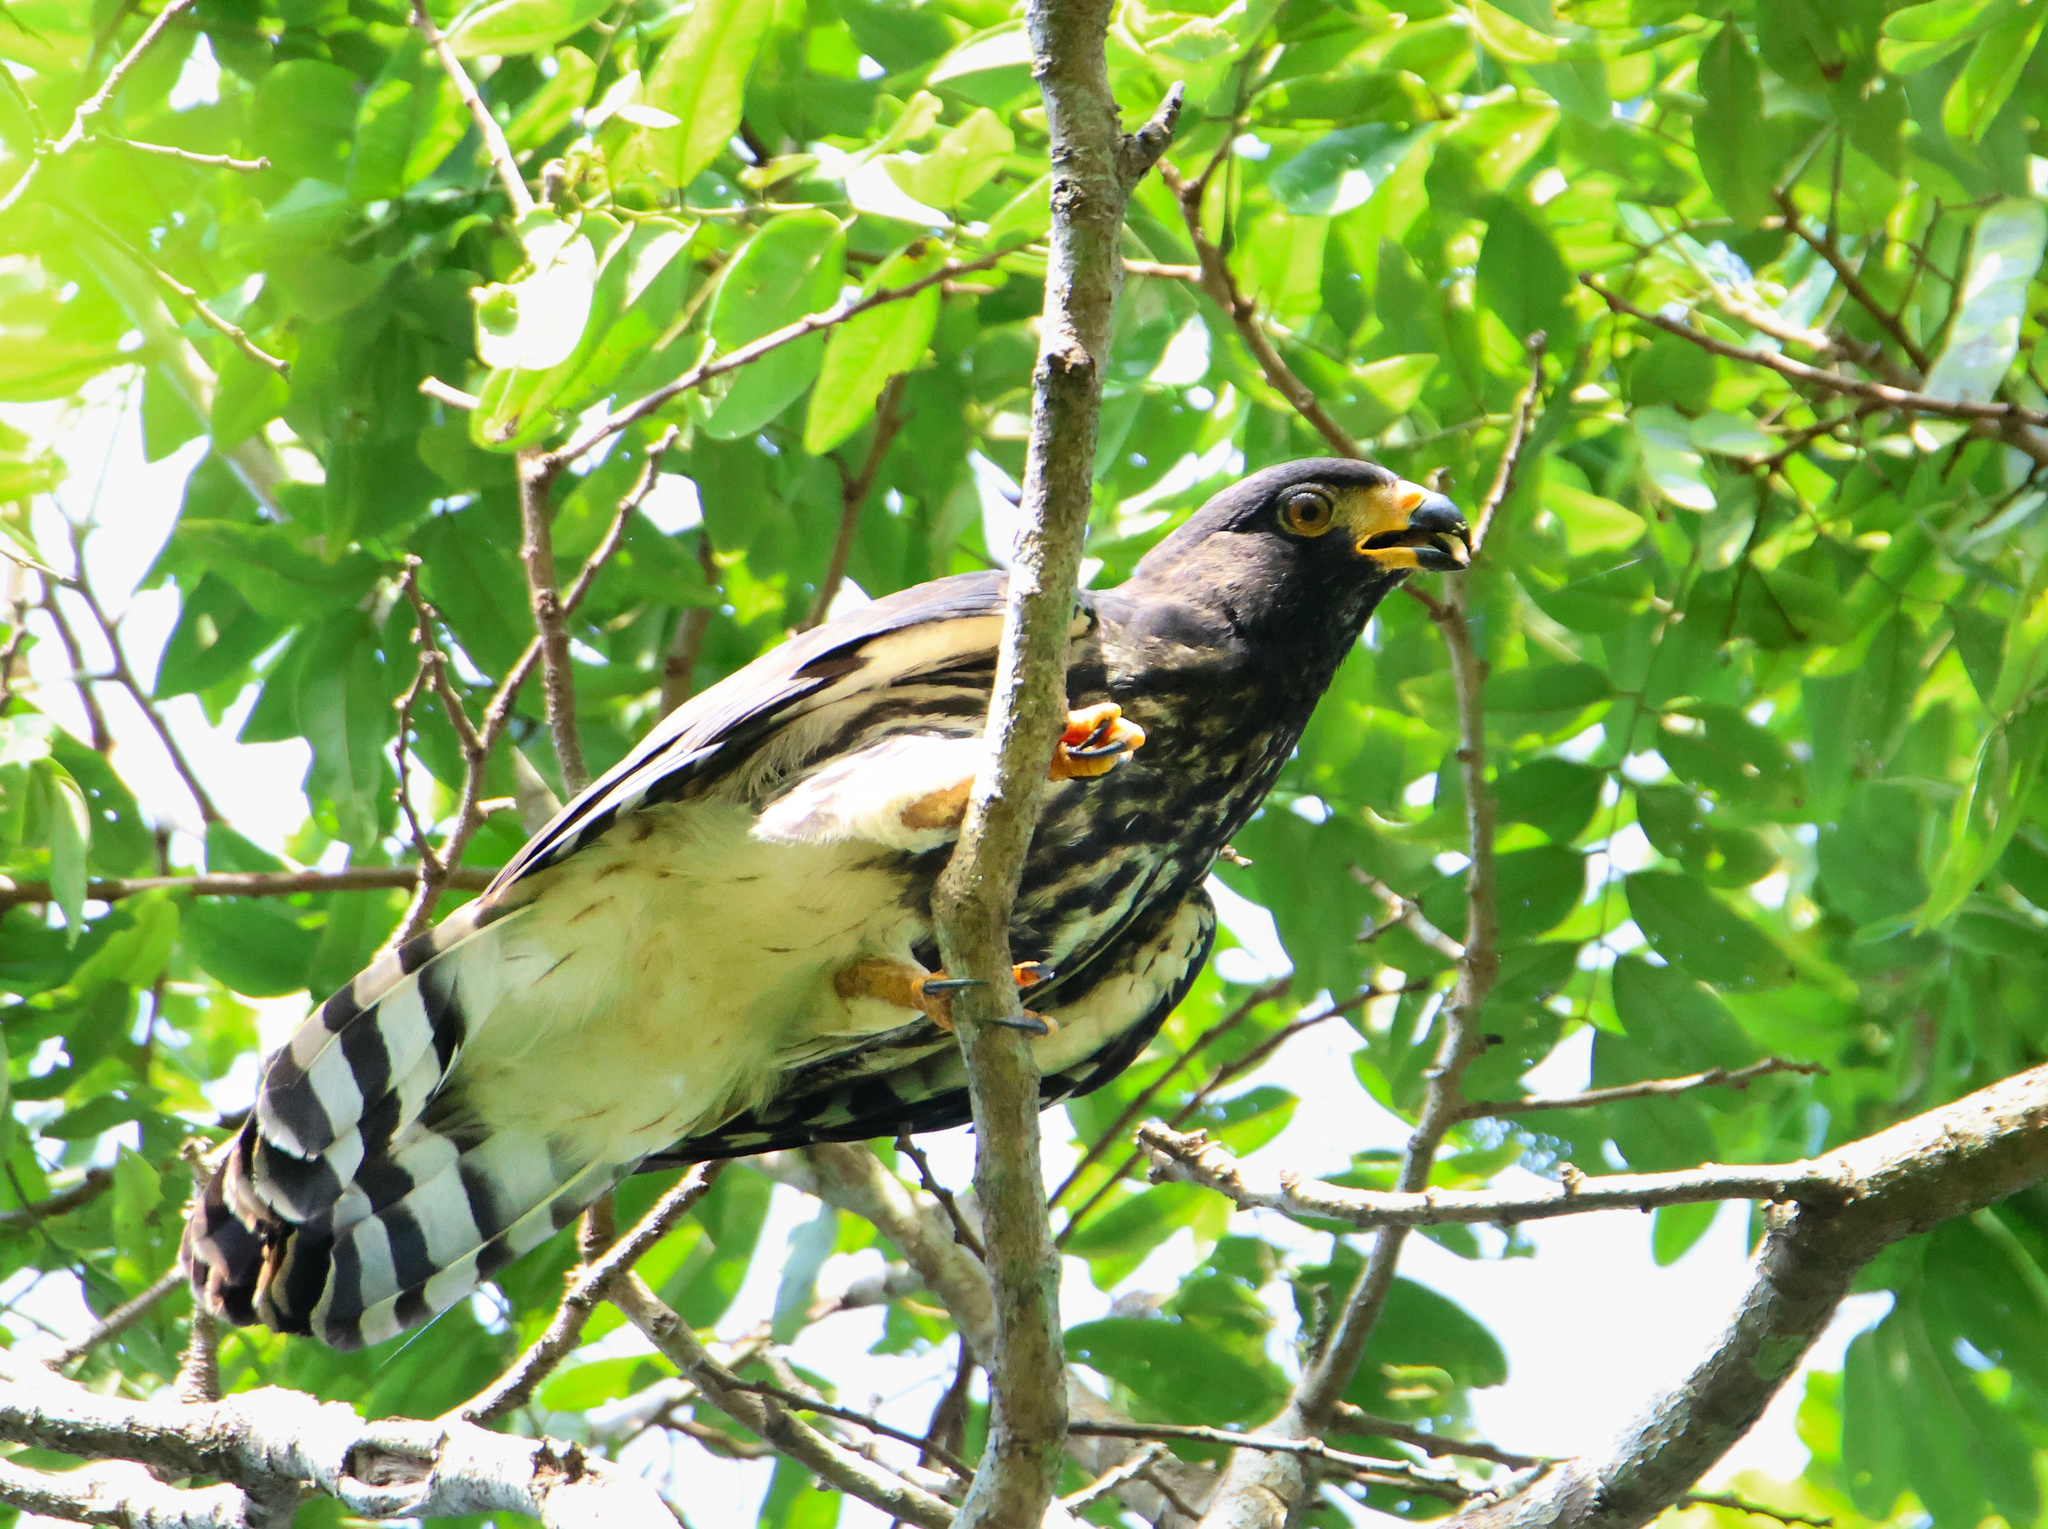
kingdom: Animalia
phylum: Chordata
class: Aves
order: Accipitriformes
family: Accipitridae
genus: Leptodon
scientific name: Leptodon cayanensis
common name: Gray-headed kite
